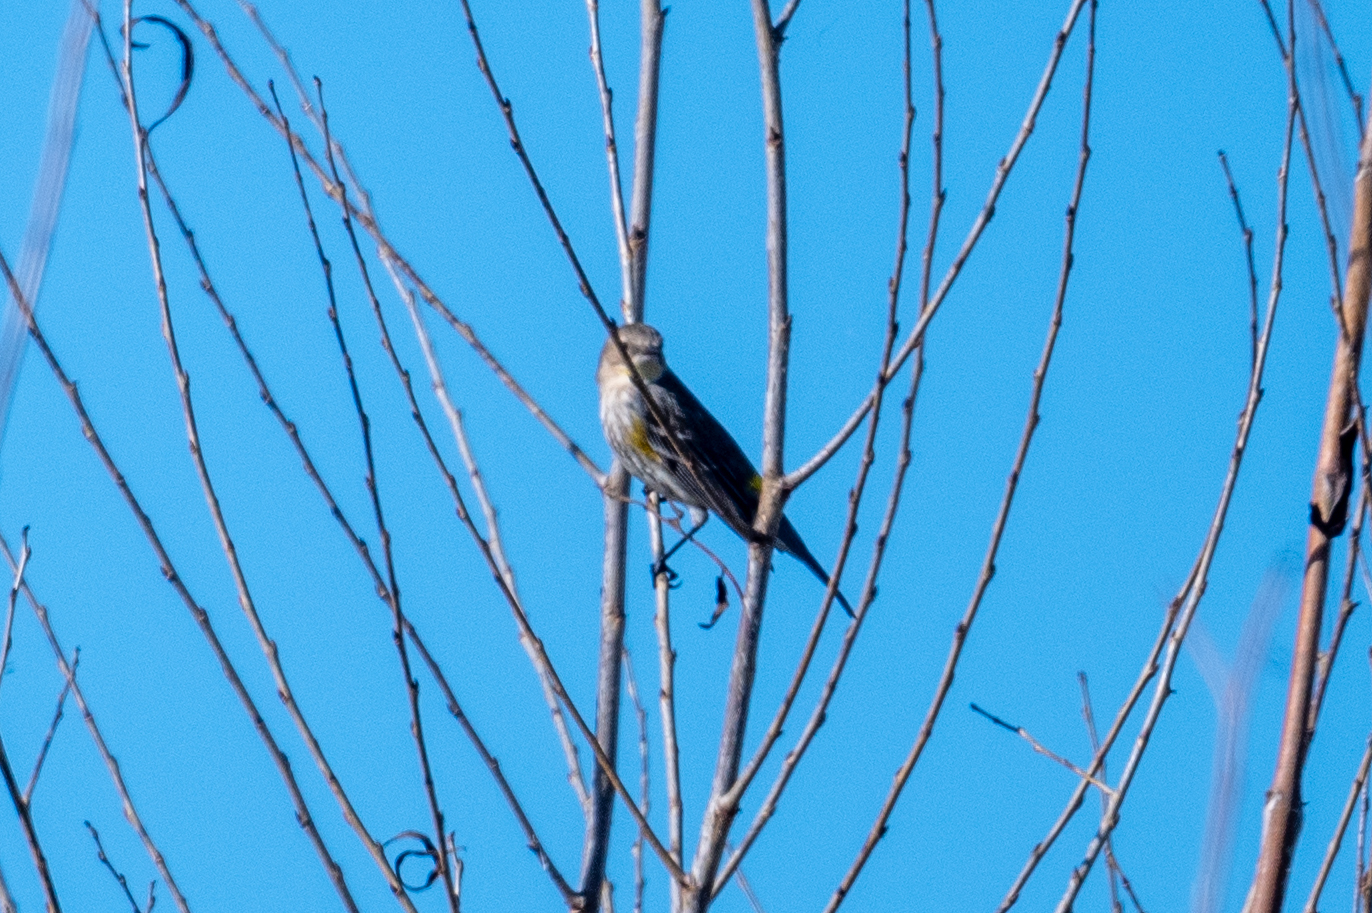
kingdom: Animalia
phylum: Chordata
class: Aves
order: Passeriformes
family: Parulidae
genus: Setophaga
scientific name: Setophaga coronata
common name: Myrtle warbler
